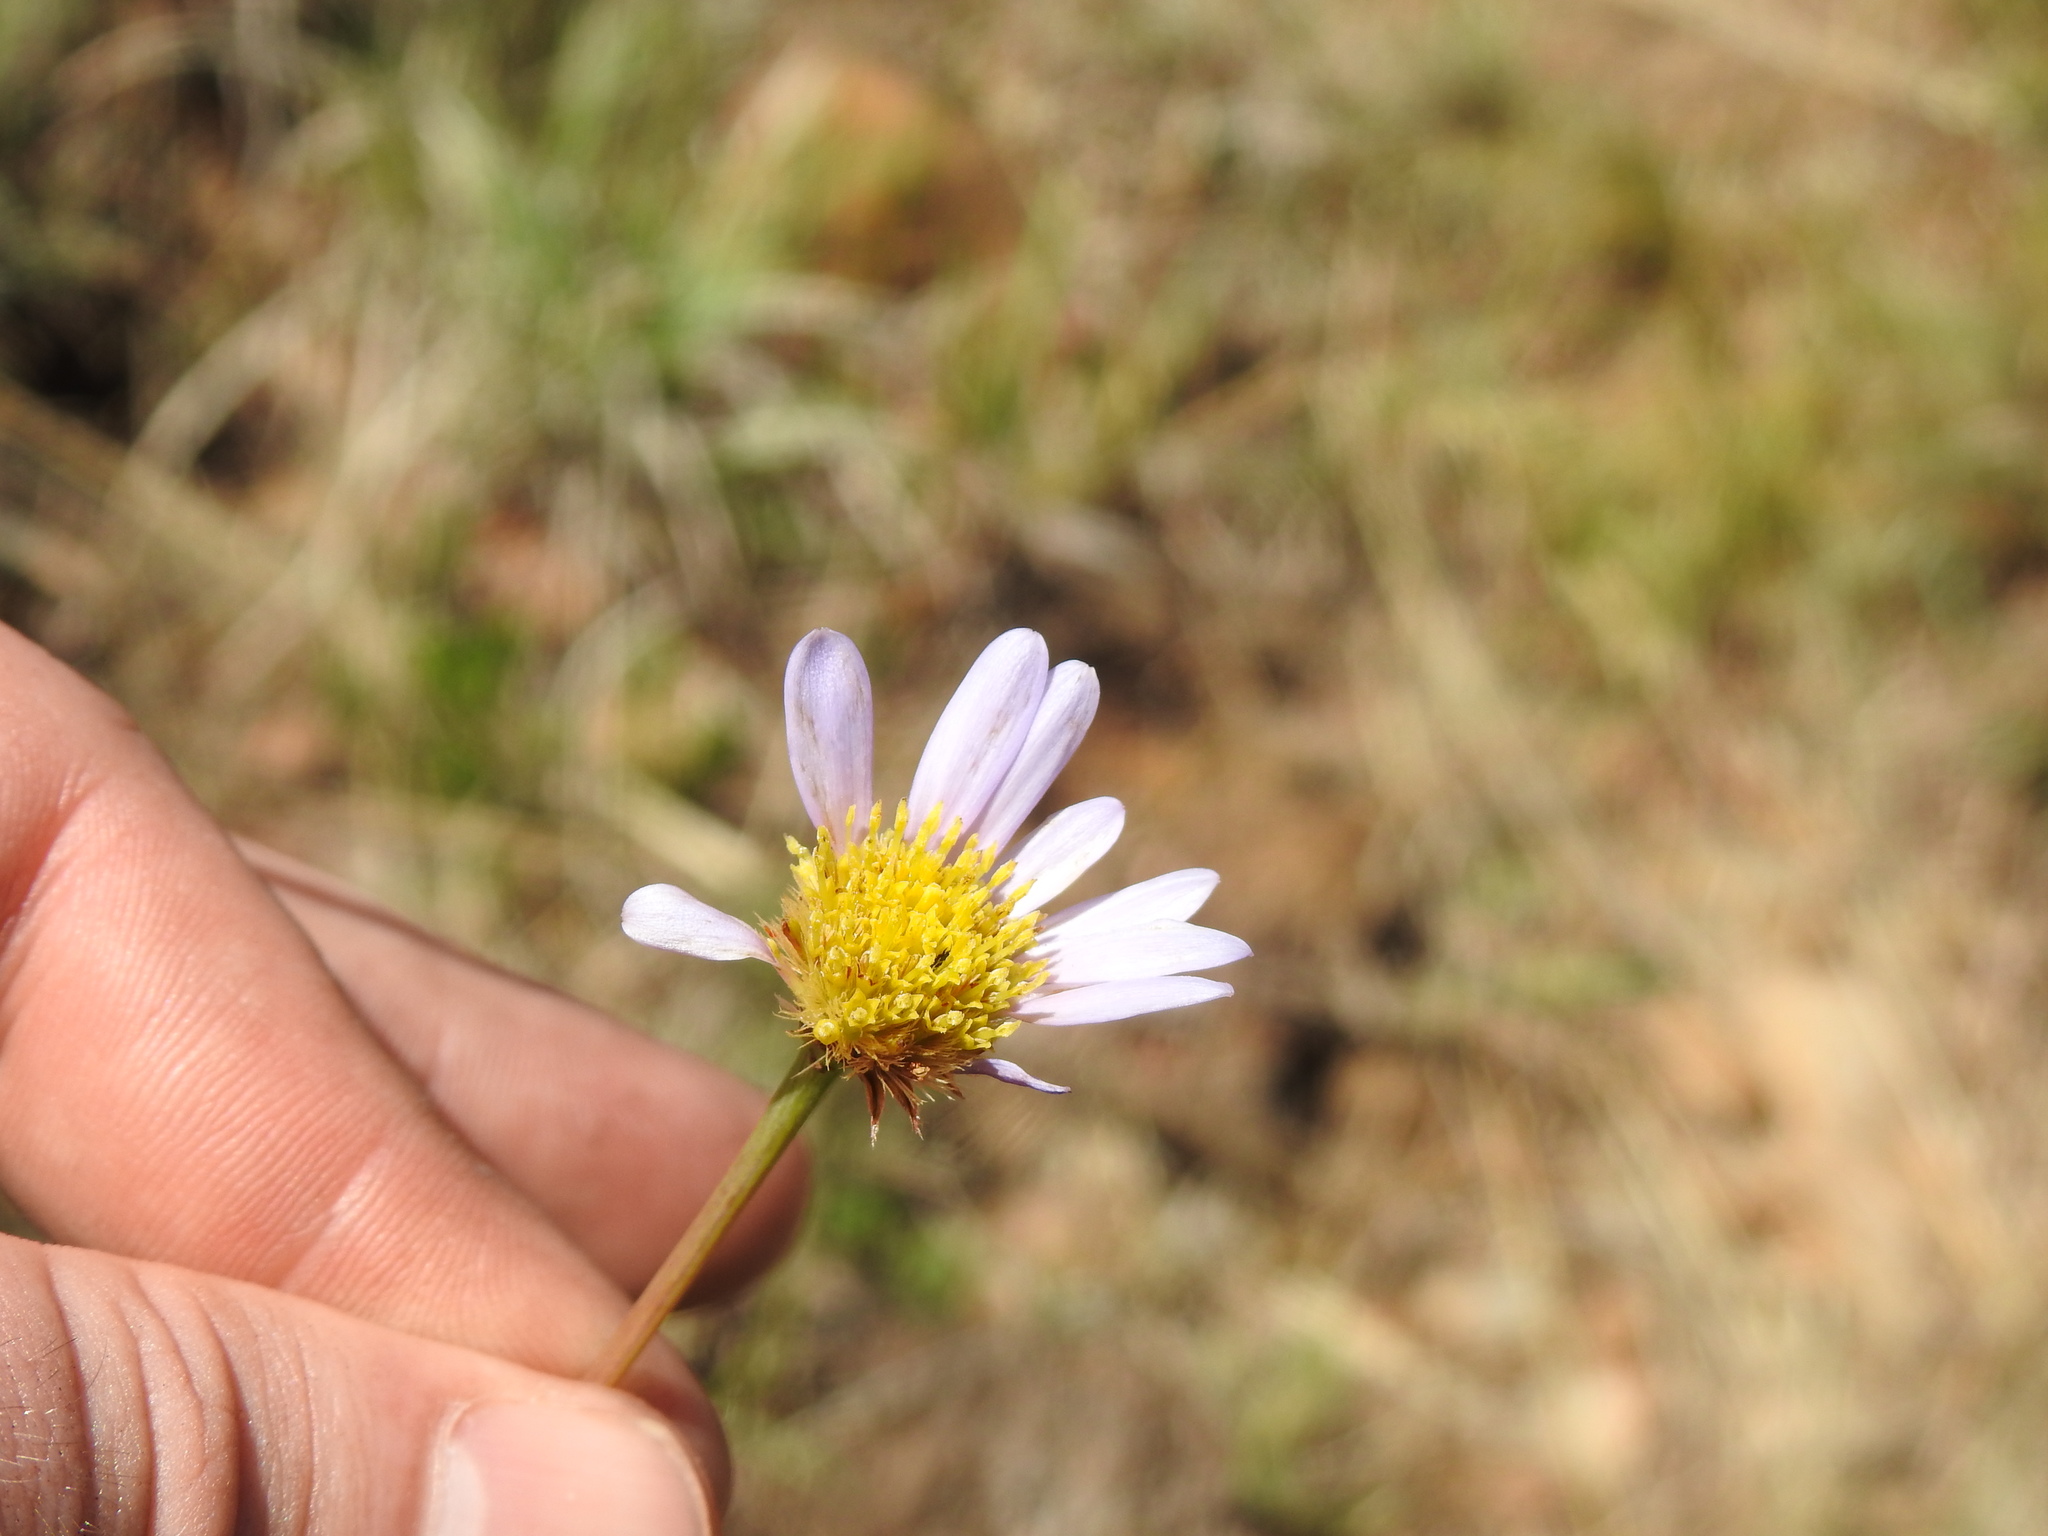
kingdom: Plantae
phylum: Tracheophyta
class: Magnoliopsida
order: Asterales
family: Asteraceae
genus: Afroaster
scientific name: Afroaster serrulatus
